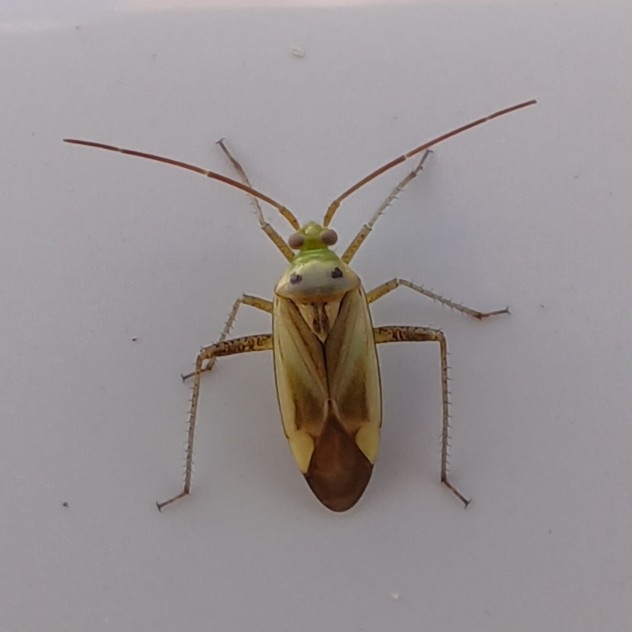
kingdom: Animalia
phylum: Arthropoda
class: Insecta
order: Hemiptera
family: Miridae
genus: Adelphocoris
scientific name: Adelphocoris lineolatus
